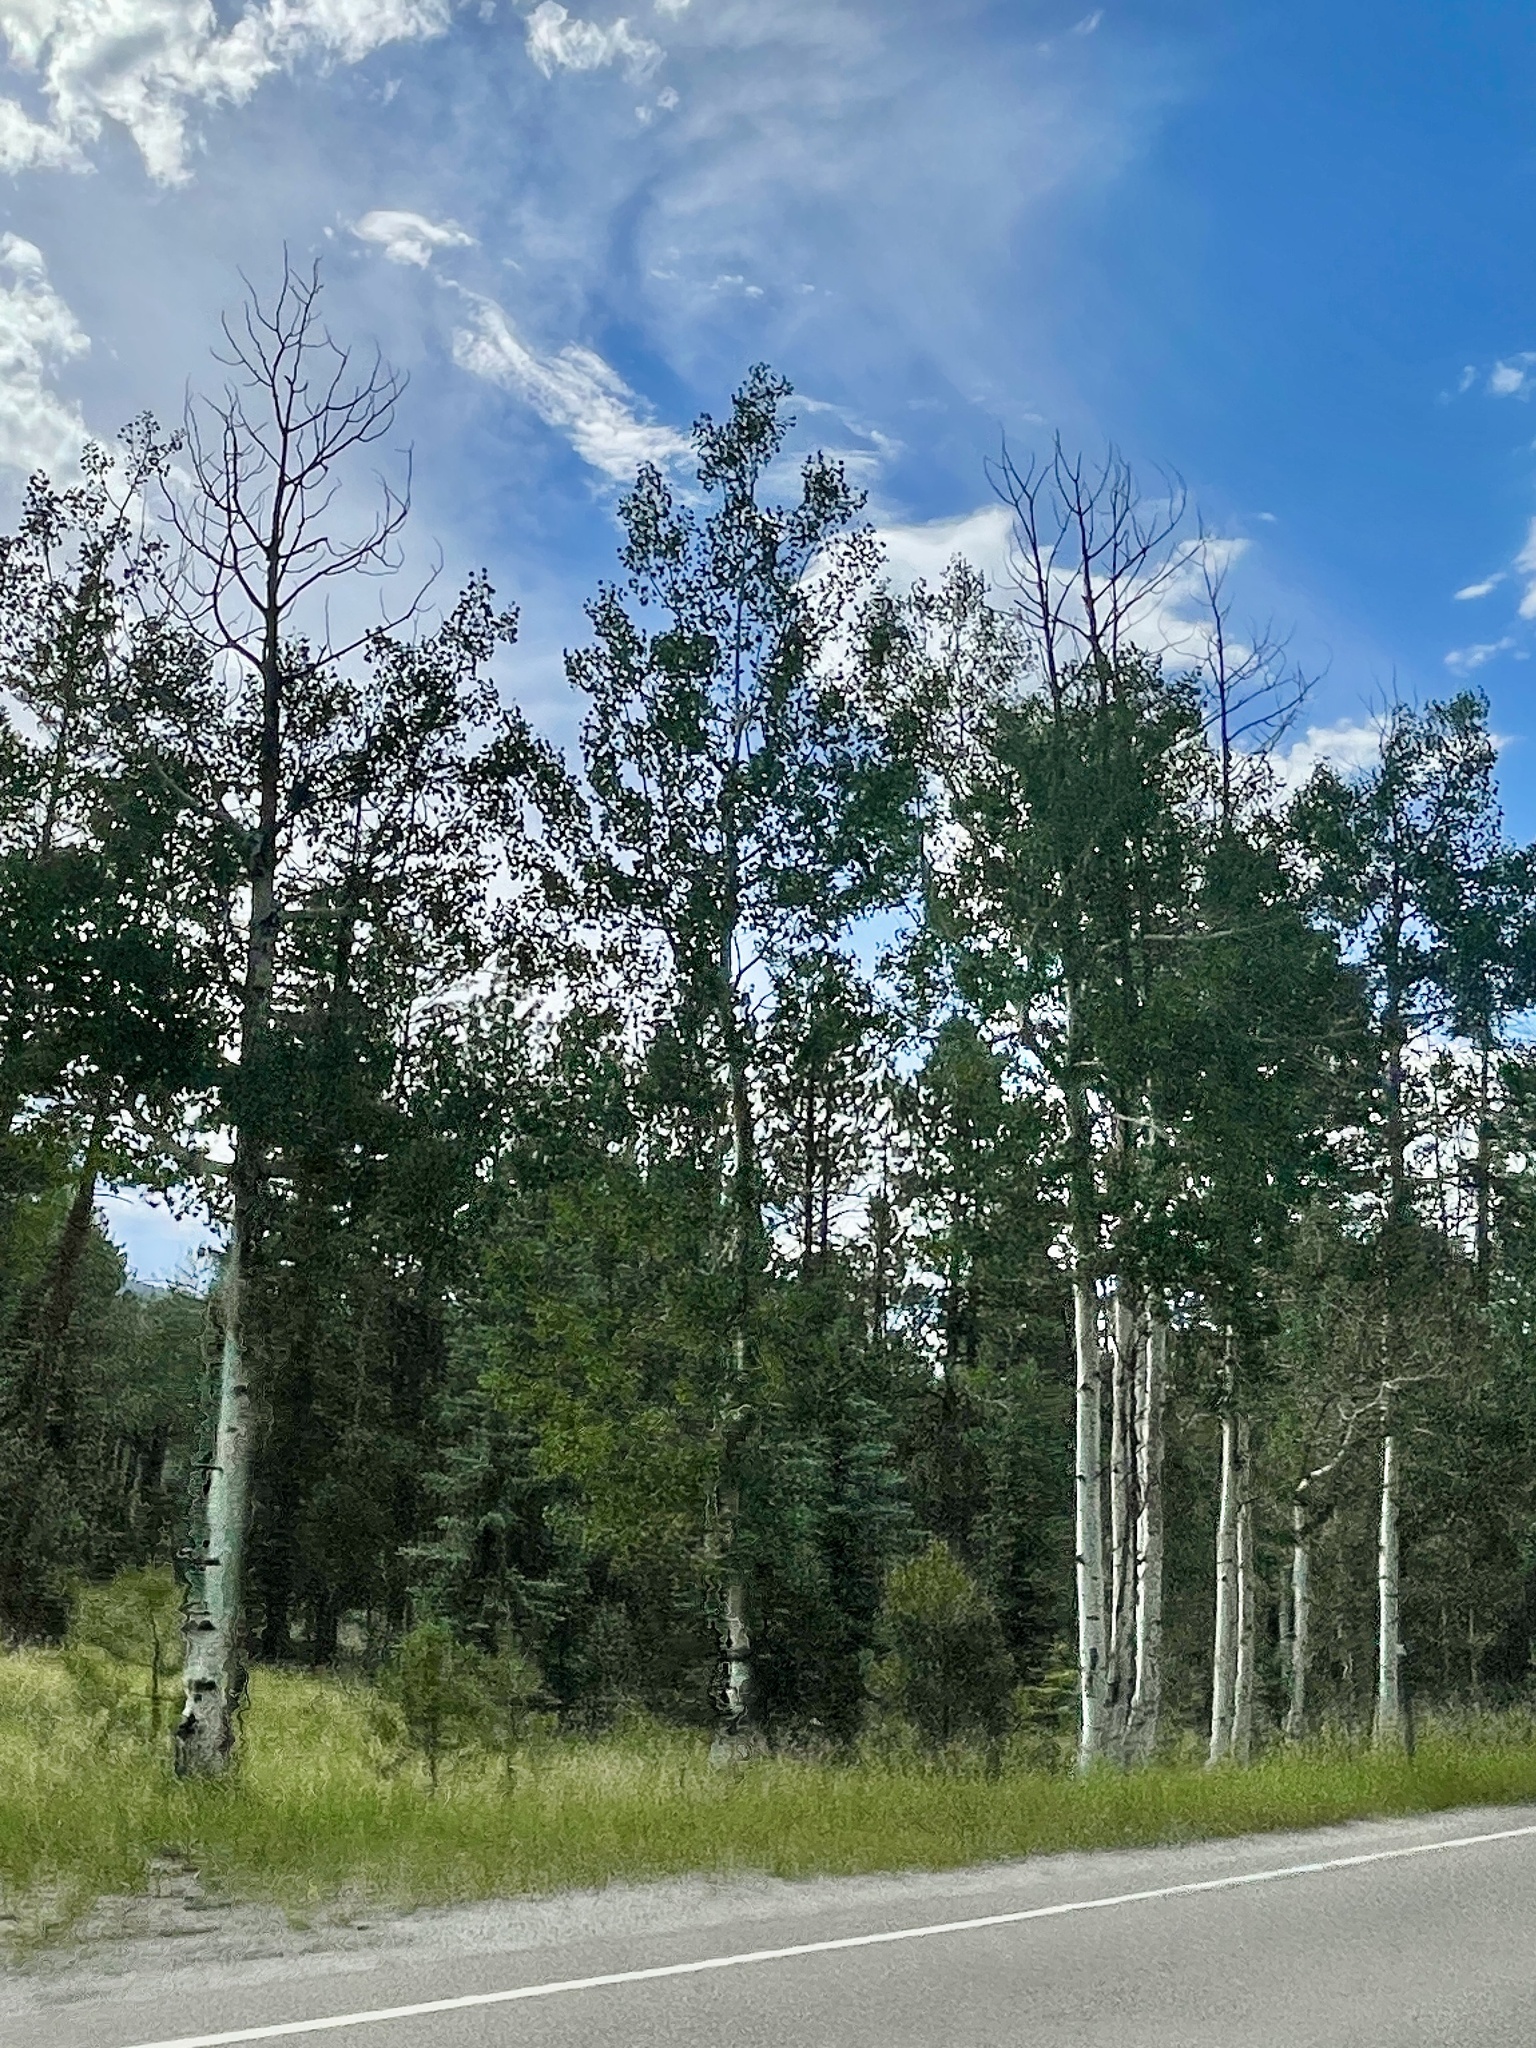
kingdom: Plantae
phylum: Tracheophyta
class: Magnoliopsida
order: Malpighiales
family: Salicaceae
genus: Populus
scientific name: Populus tremuloides
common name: Quaking aspen
